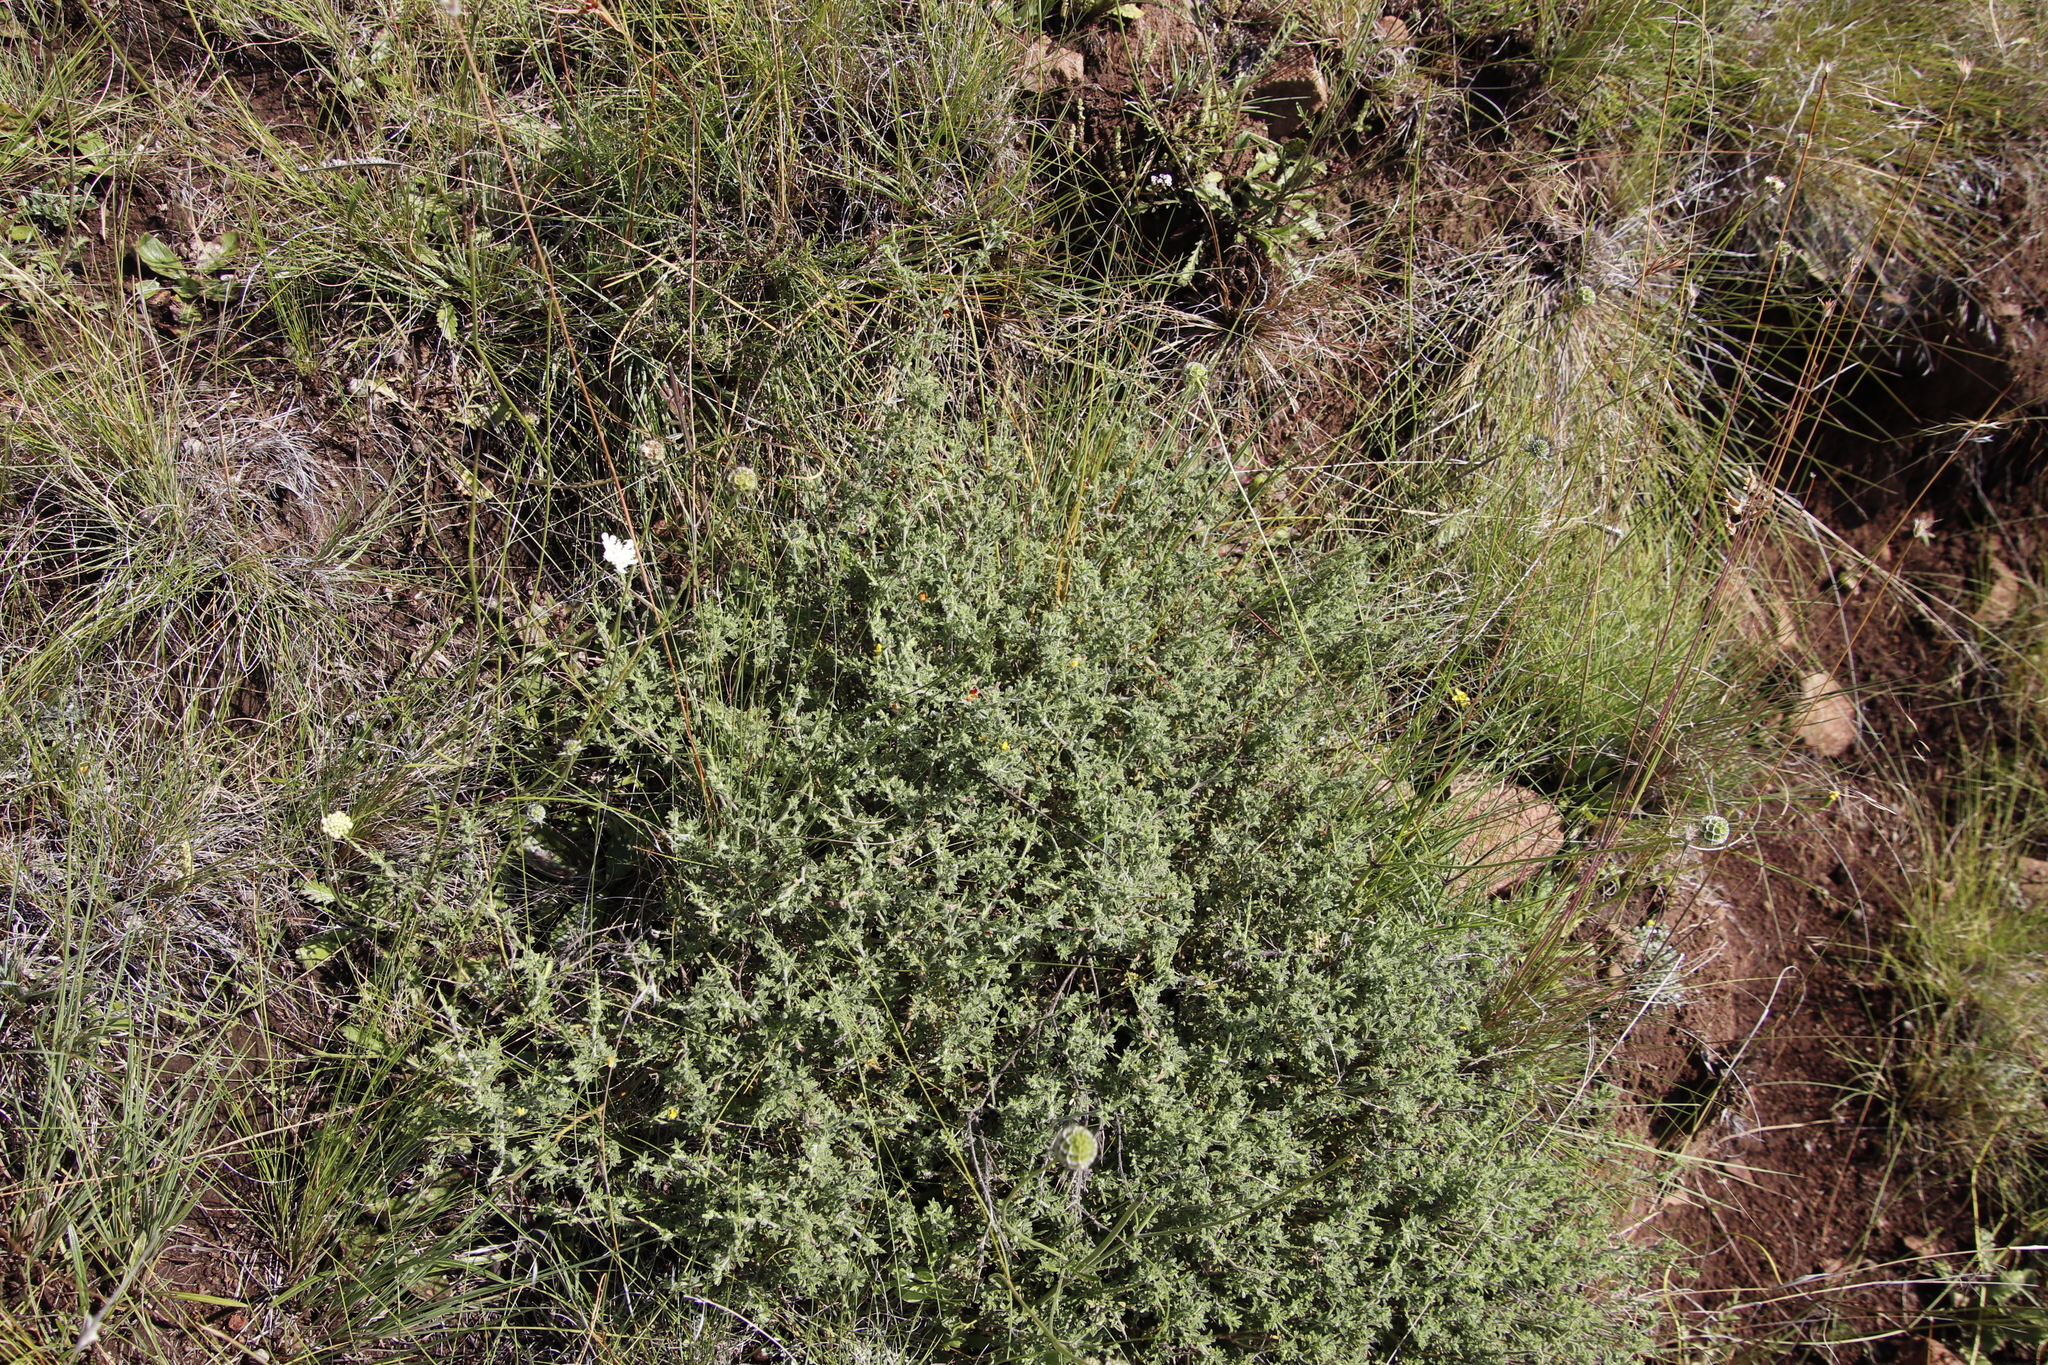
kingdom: Plantae
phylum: Tracheophyta
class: Magnoliopsida
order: Fabales
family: Fabaceae
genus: Melolobium
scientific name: Melolobium microphyllum
